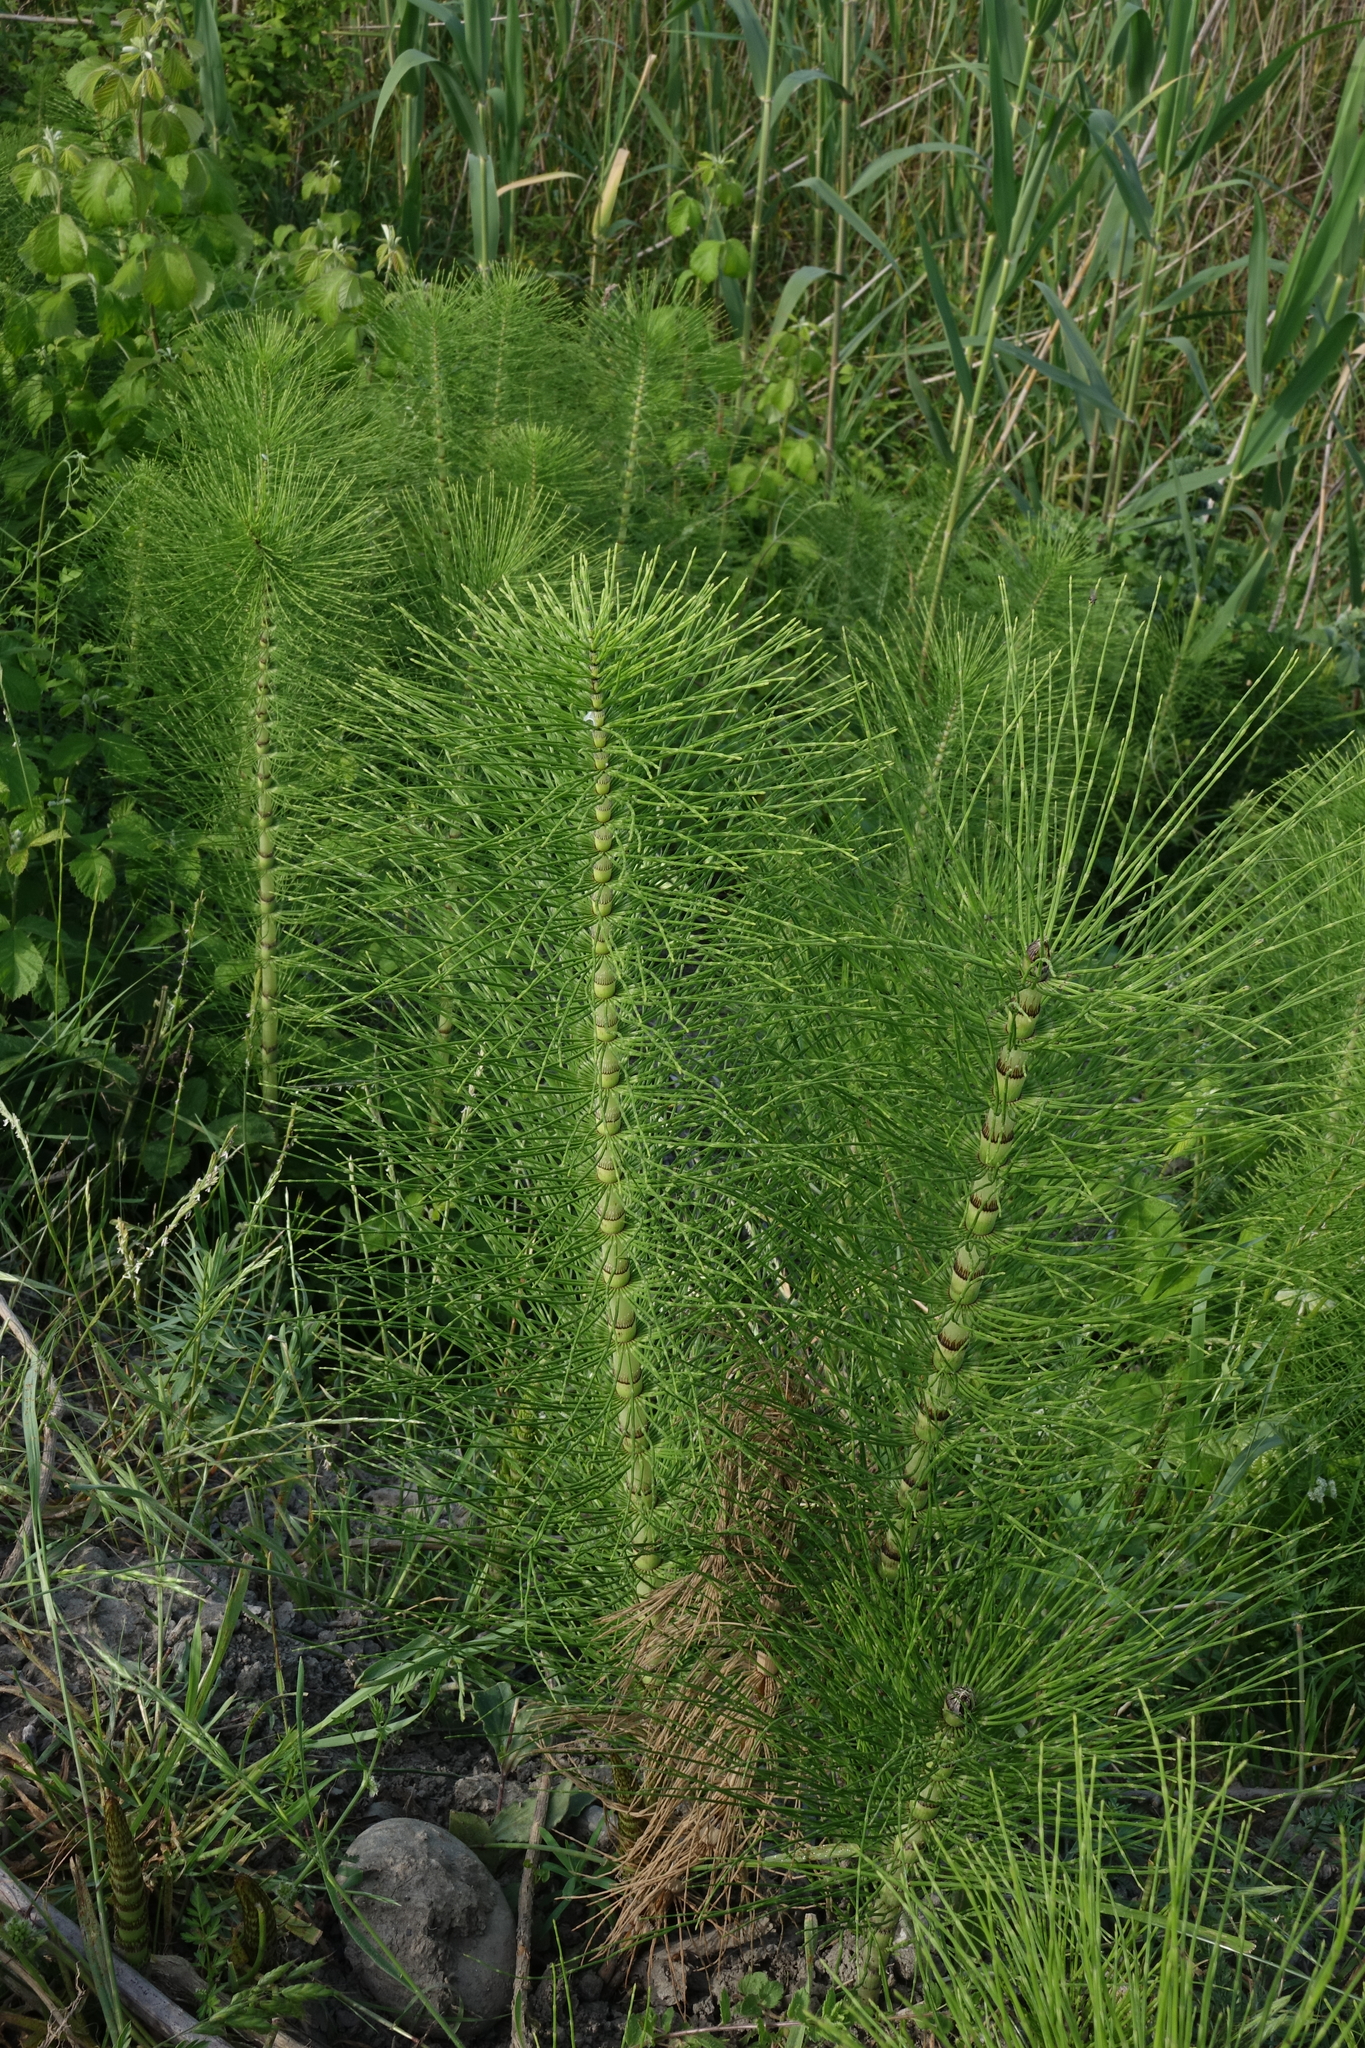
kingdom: Plantae
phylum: Tracheophyta
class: Polypodiopsida
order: Equisetales
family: Equisetaceae
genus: Equisetum
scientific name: Equisetum telmateia
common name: Great horsetail
